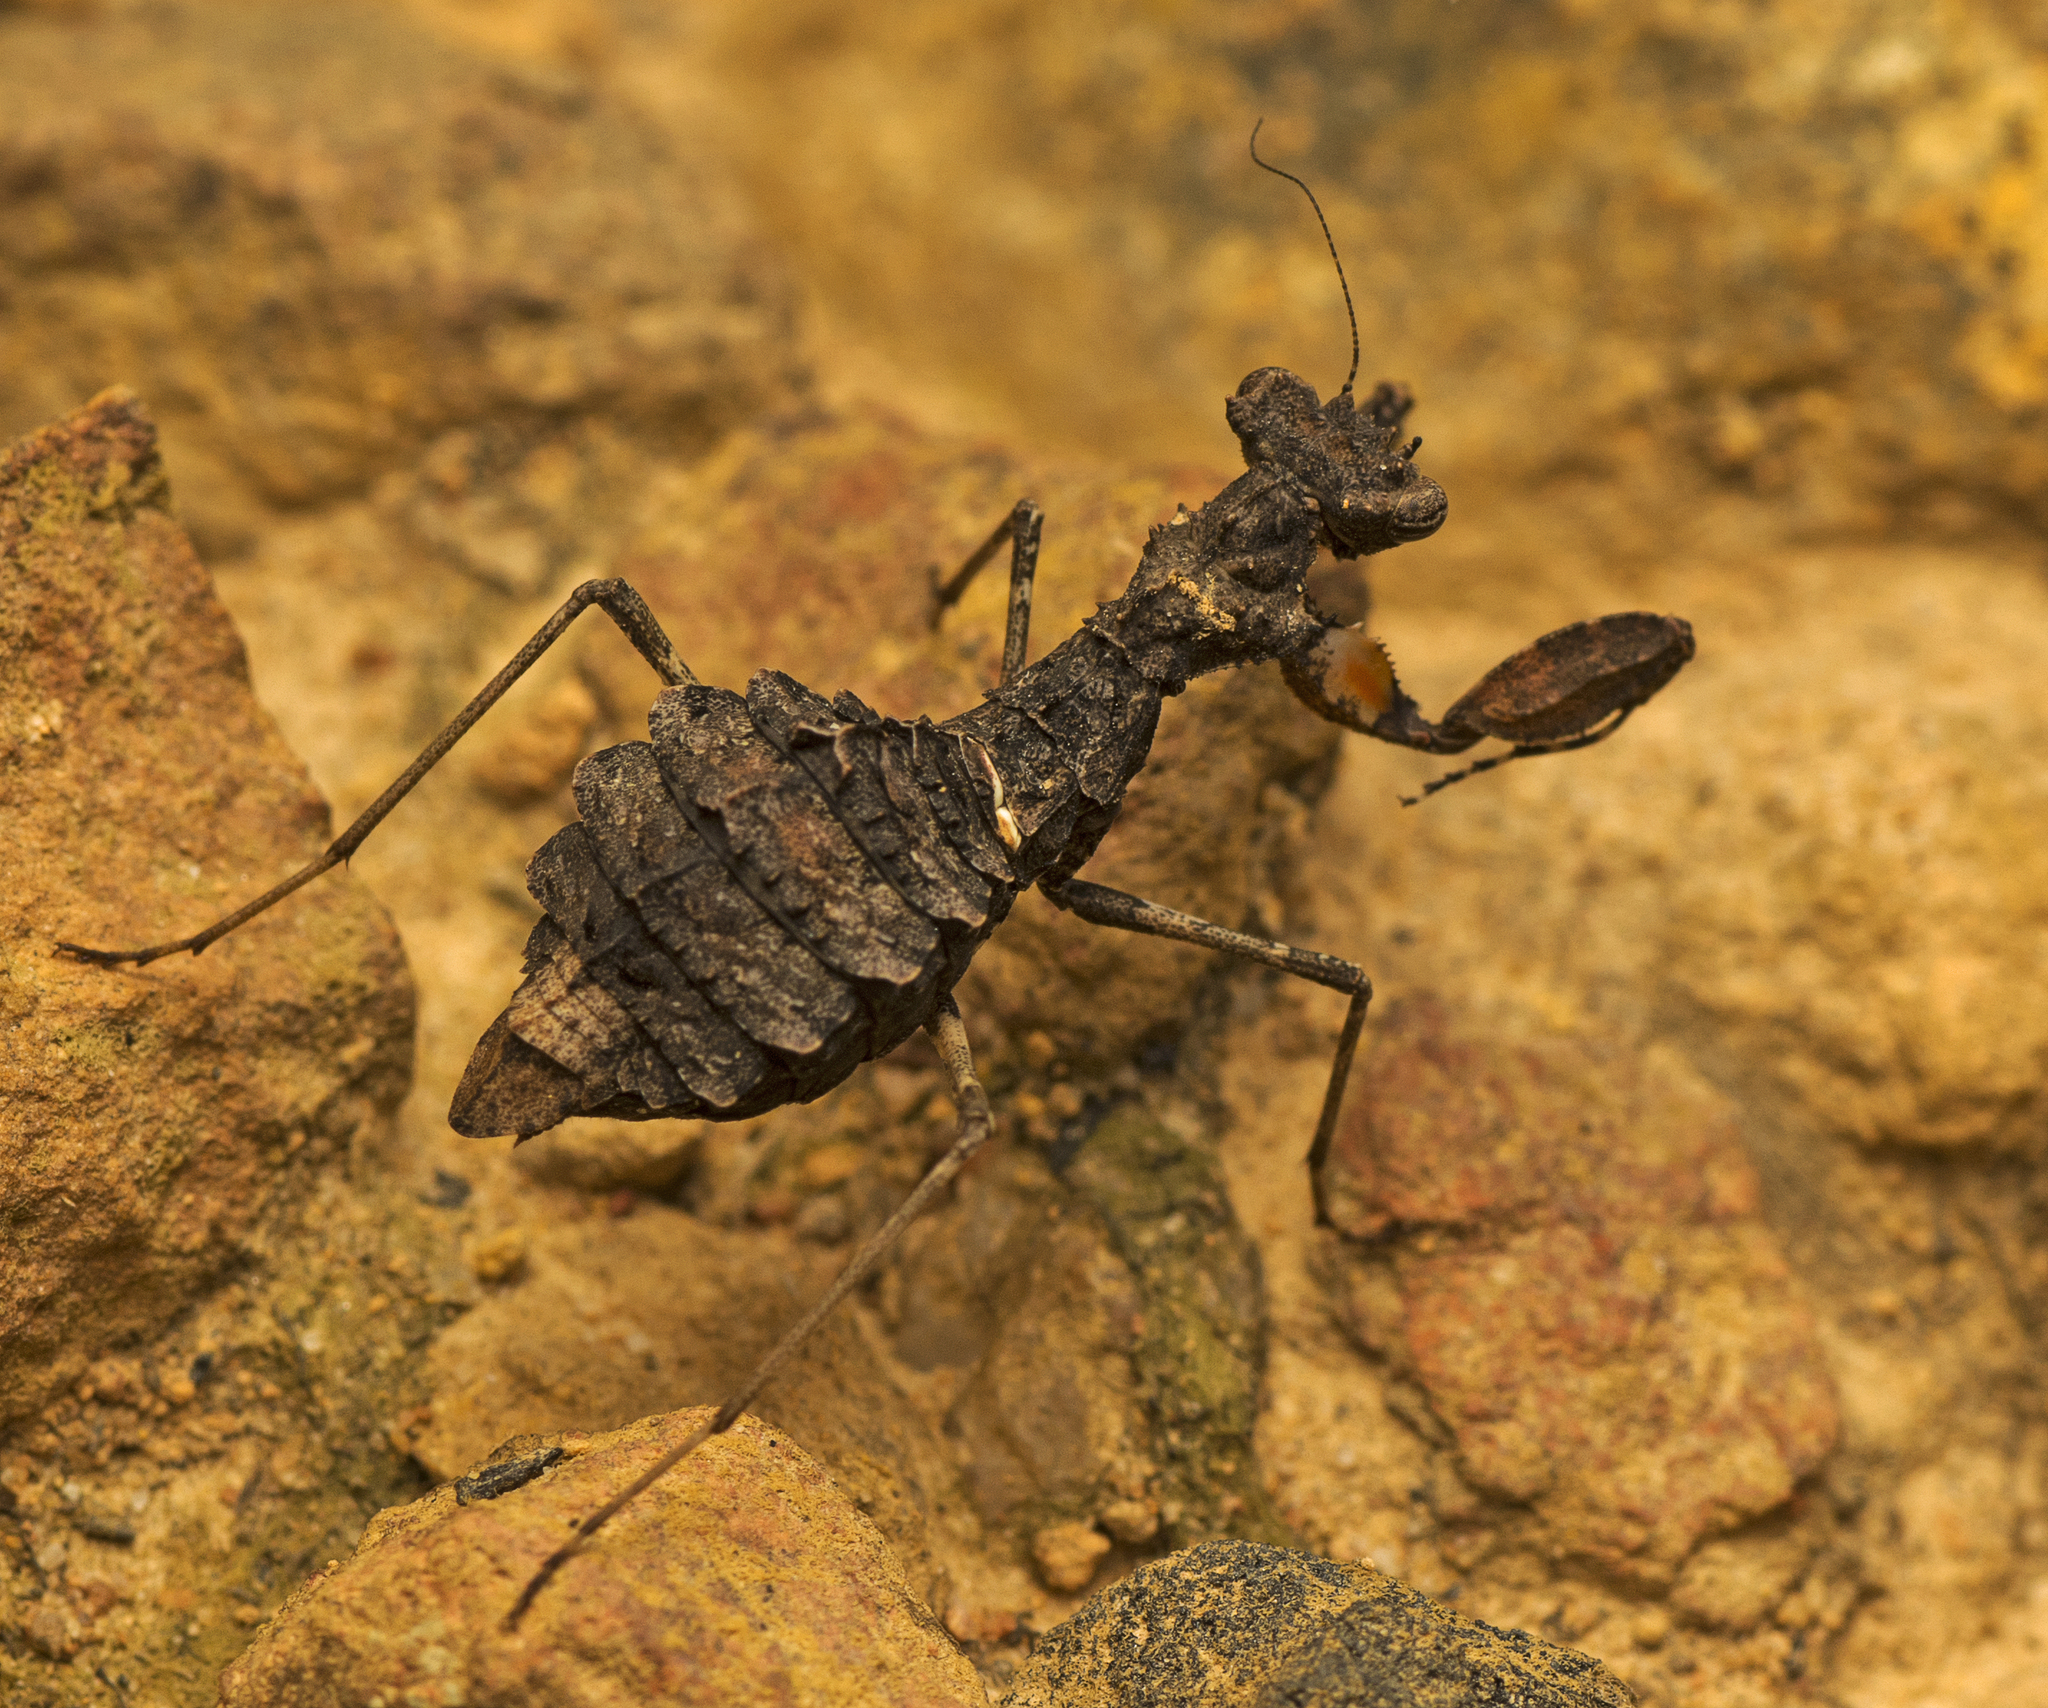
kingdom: Animalia
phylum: Arthropoda
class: Insecta
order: Mantodea
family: Nanomantidae
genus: Paraoxypilus
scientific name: Paraoxypilus tasmaniensis
